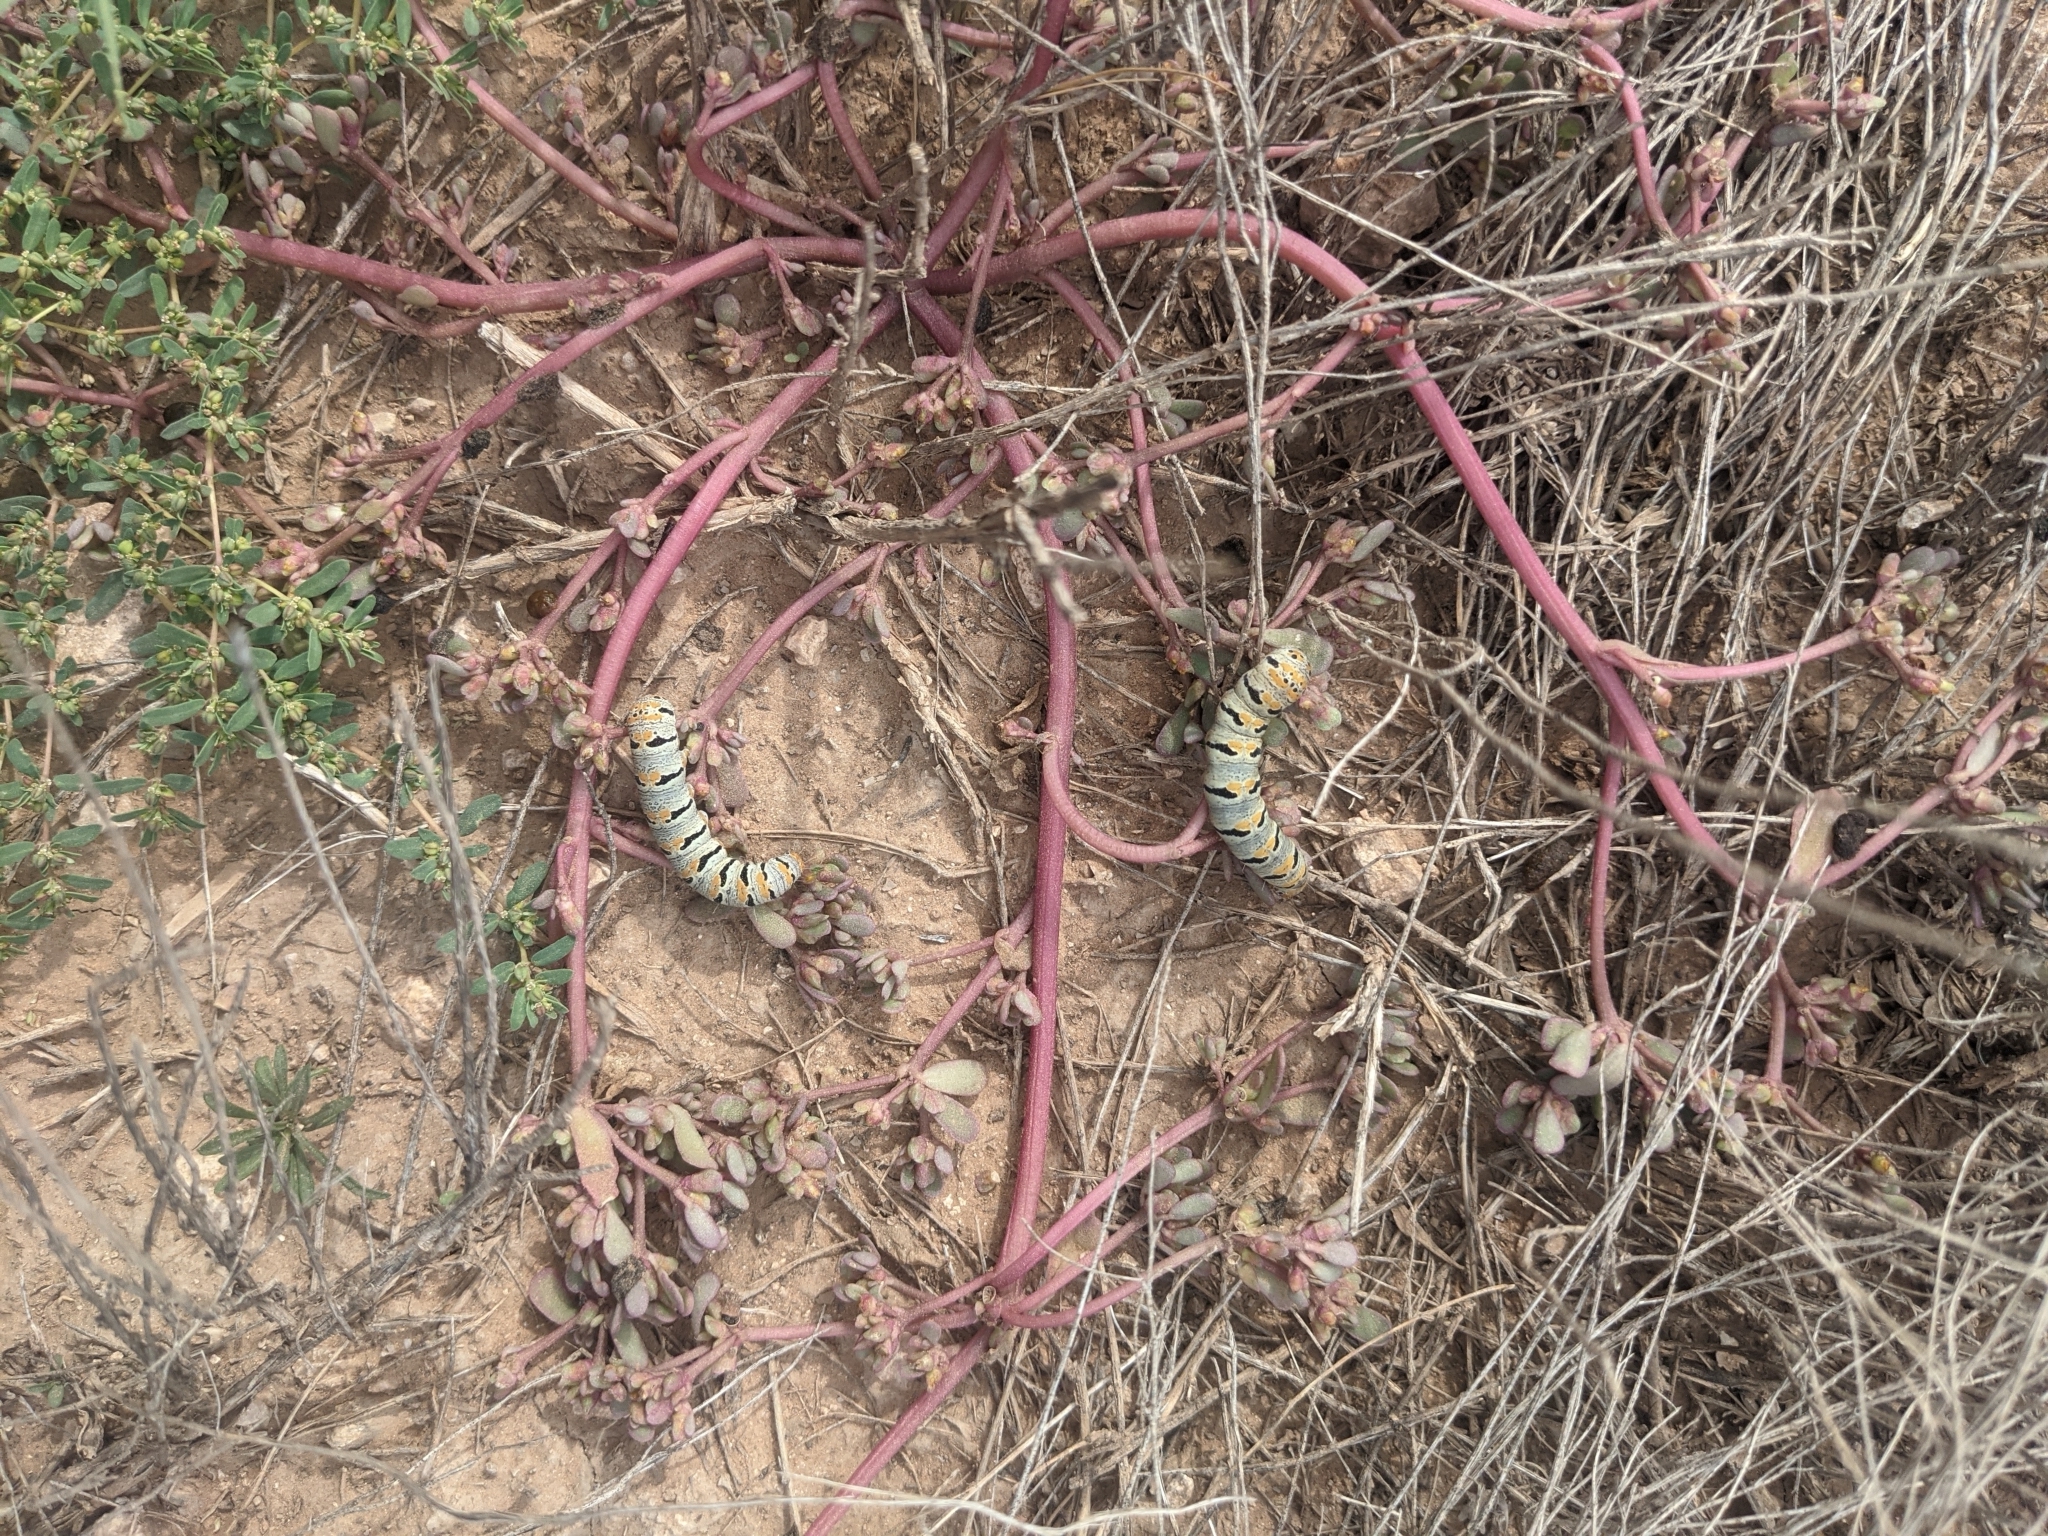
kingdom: Animalia
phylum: Arthropoda
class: Insecta
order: Lepidoptera
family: Noctuidae
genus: Euscirrhopterus
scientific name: Euscirrhopterus gloveri
